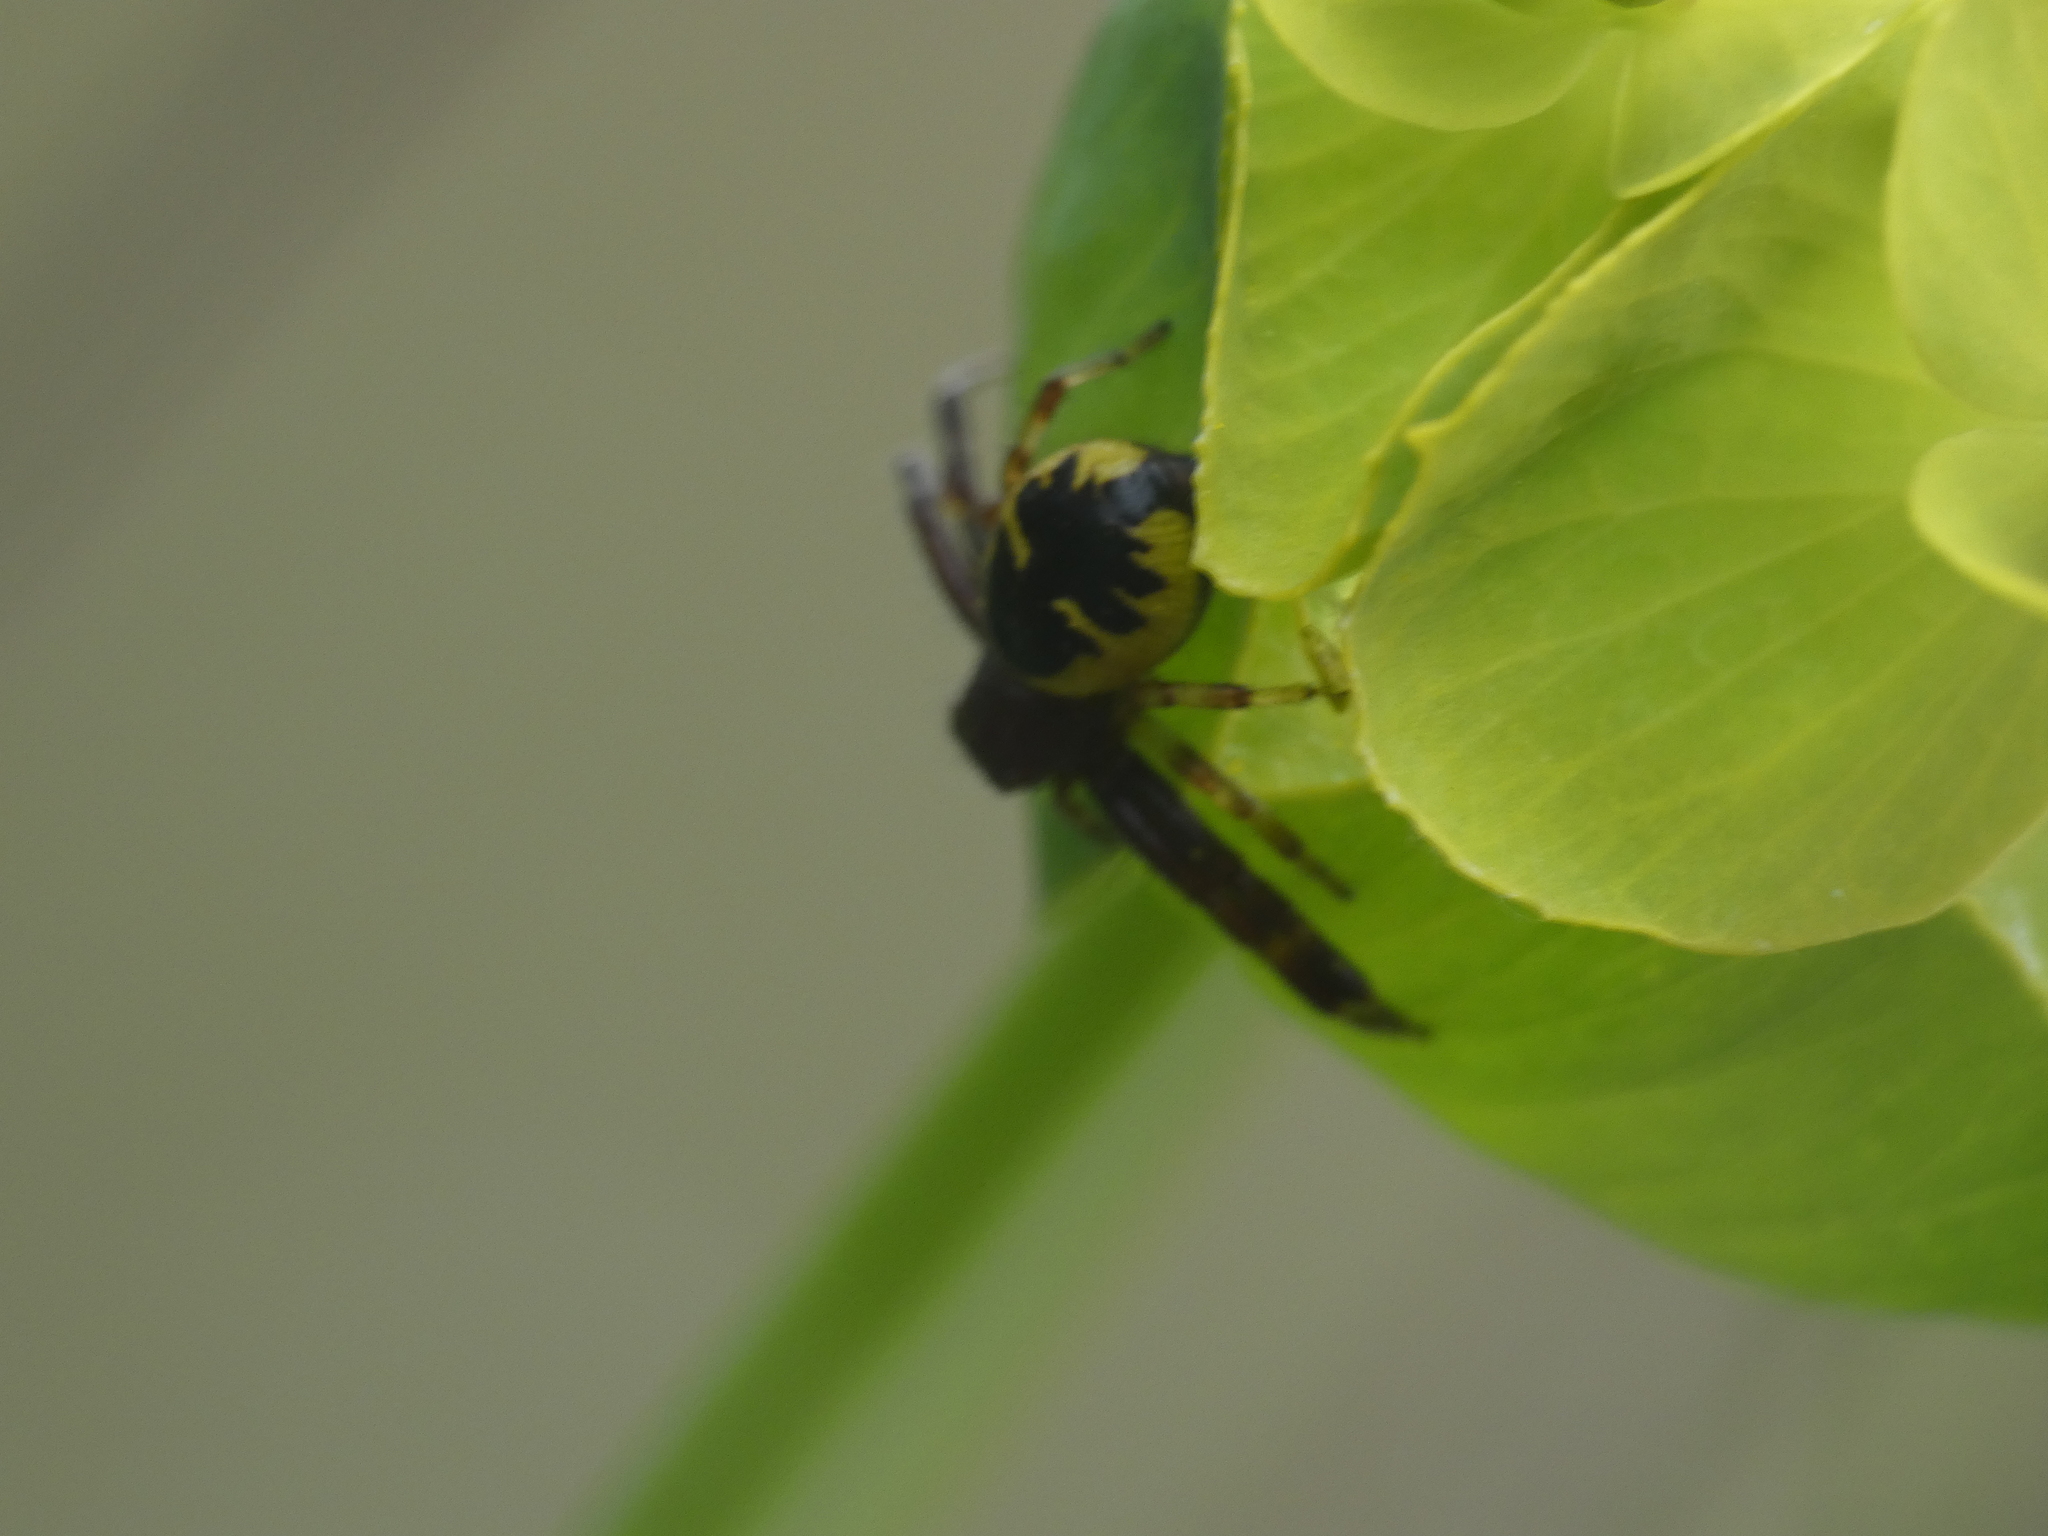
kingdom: Animalia
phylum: Arthropoda
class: Arachnida
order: Araneae
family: Thomisidae
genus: Synema
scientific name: Synema globosum
